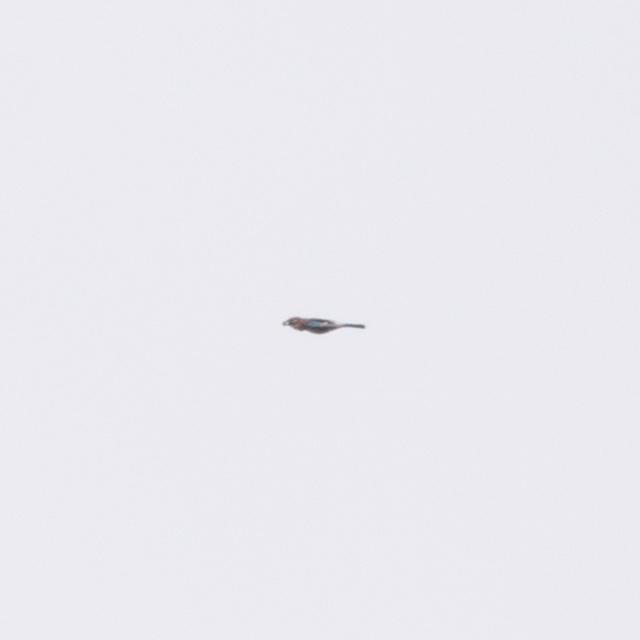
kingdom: Animalia
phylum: Chordata
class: Aves
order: Passeriformes
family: Corvidae
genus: Garrulus
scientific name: Garrulus glandarius
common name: Eurasian jay
